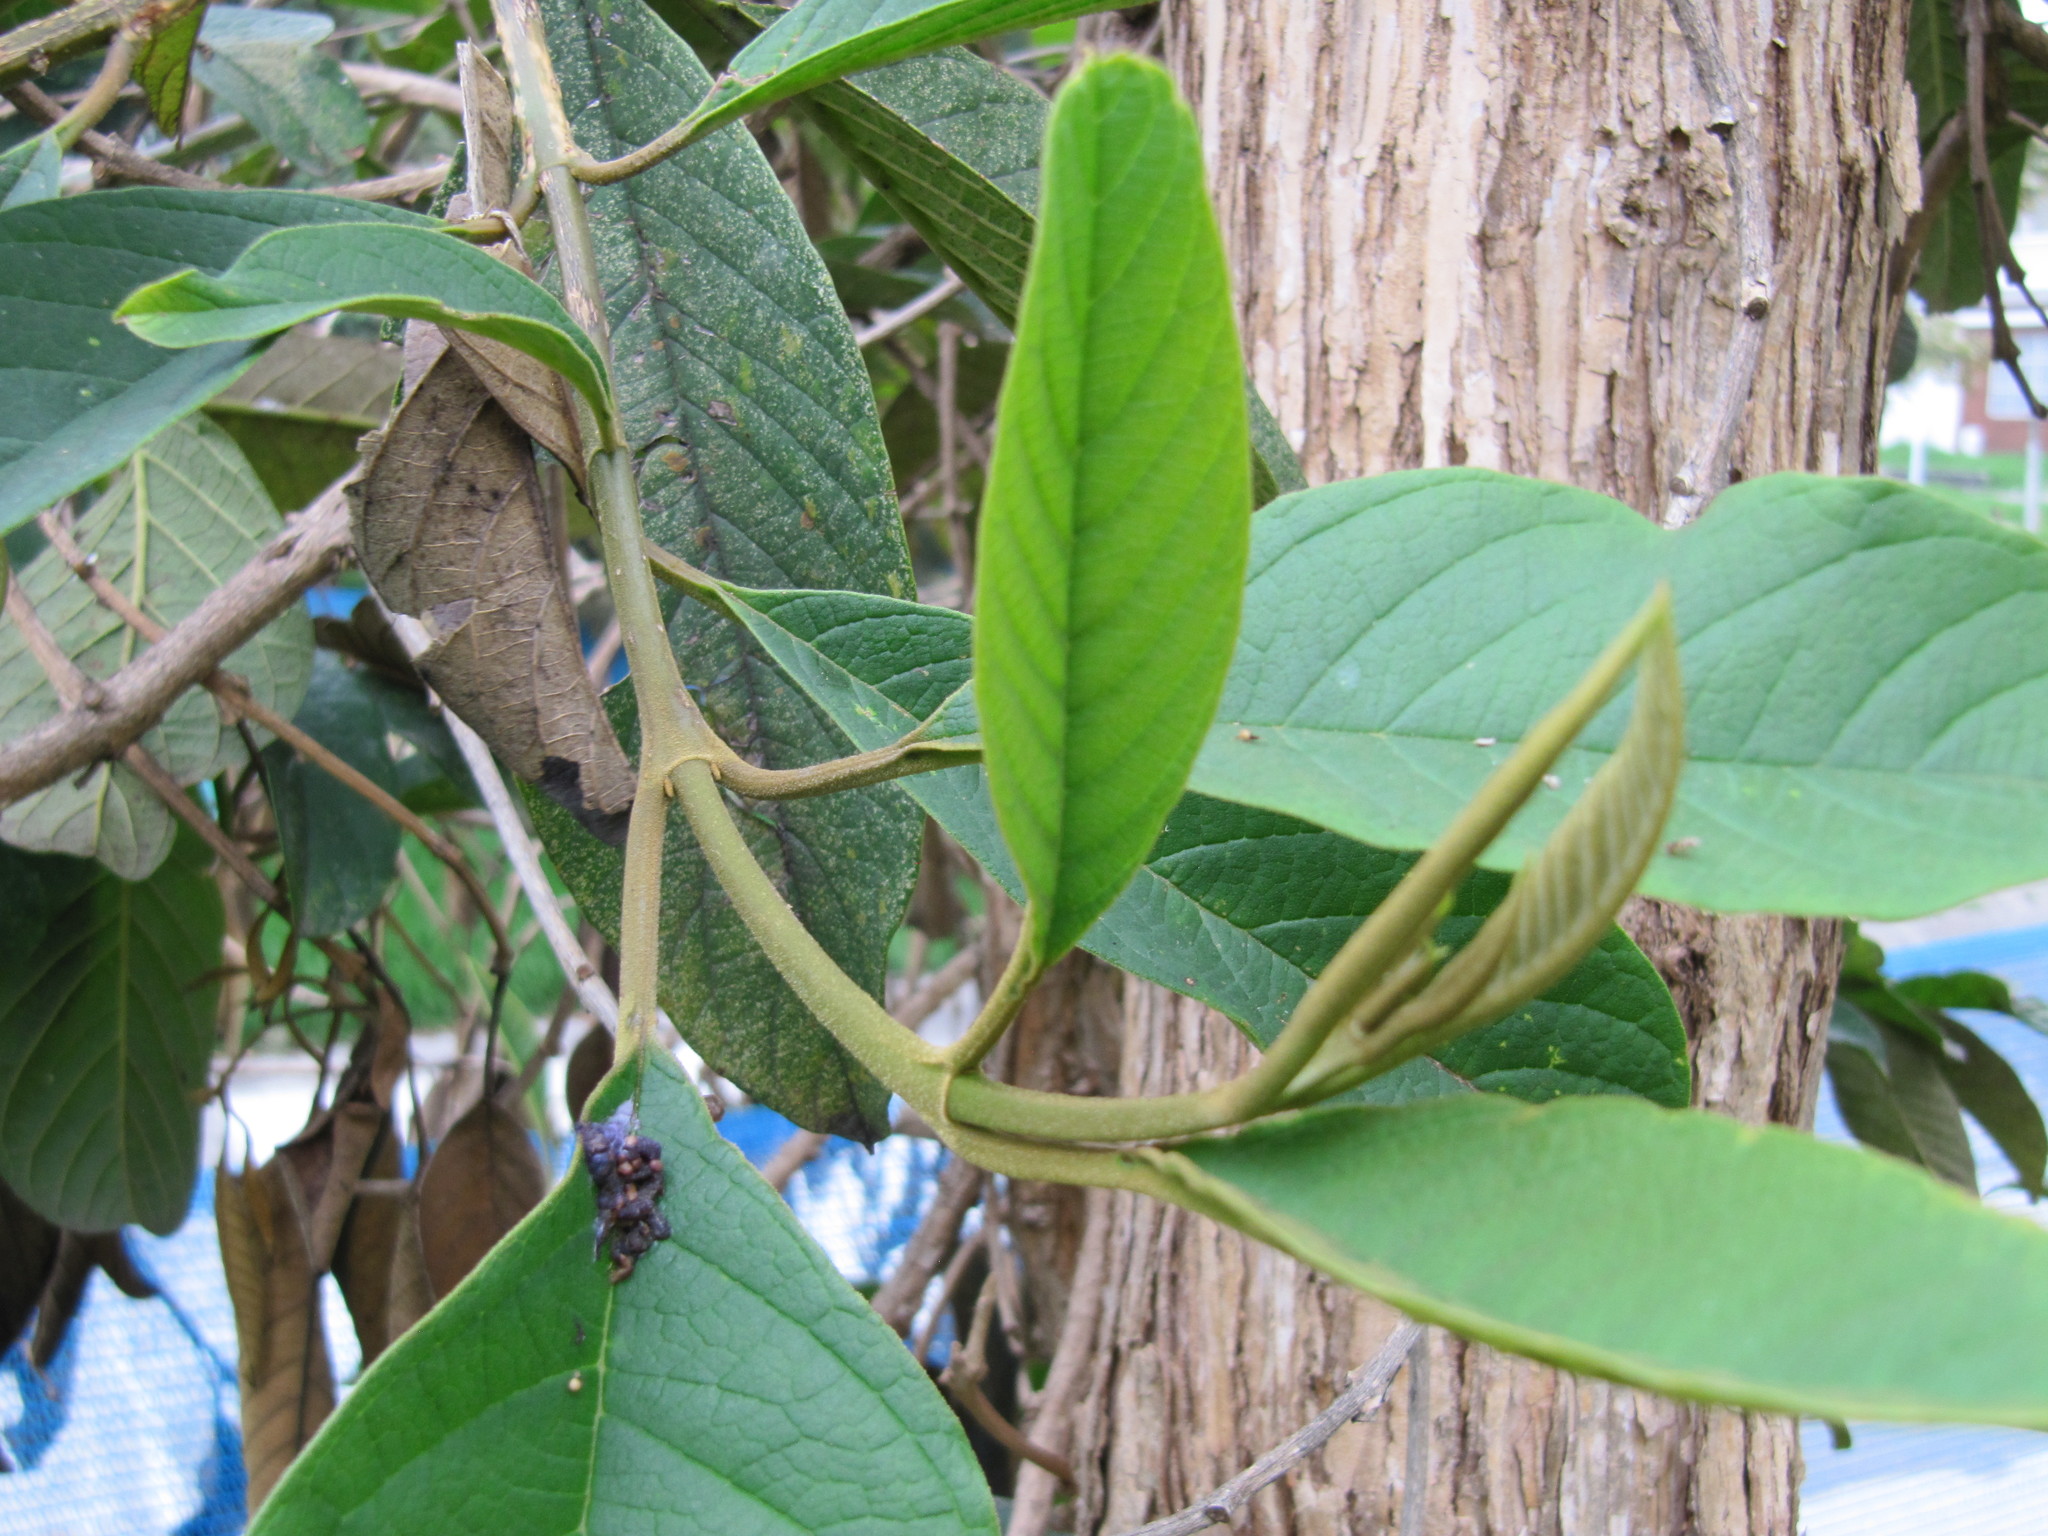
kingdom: Plantae
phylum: Tracheophyta
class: Magnoliopsida
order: Lamiales
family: Verbenaceae
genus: Citharexylum
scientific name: Citharexylum subflavescens
